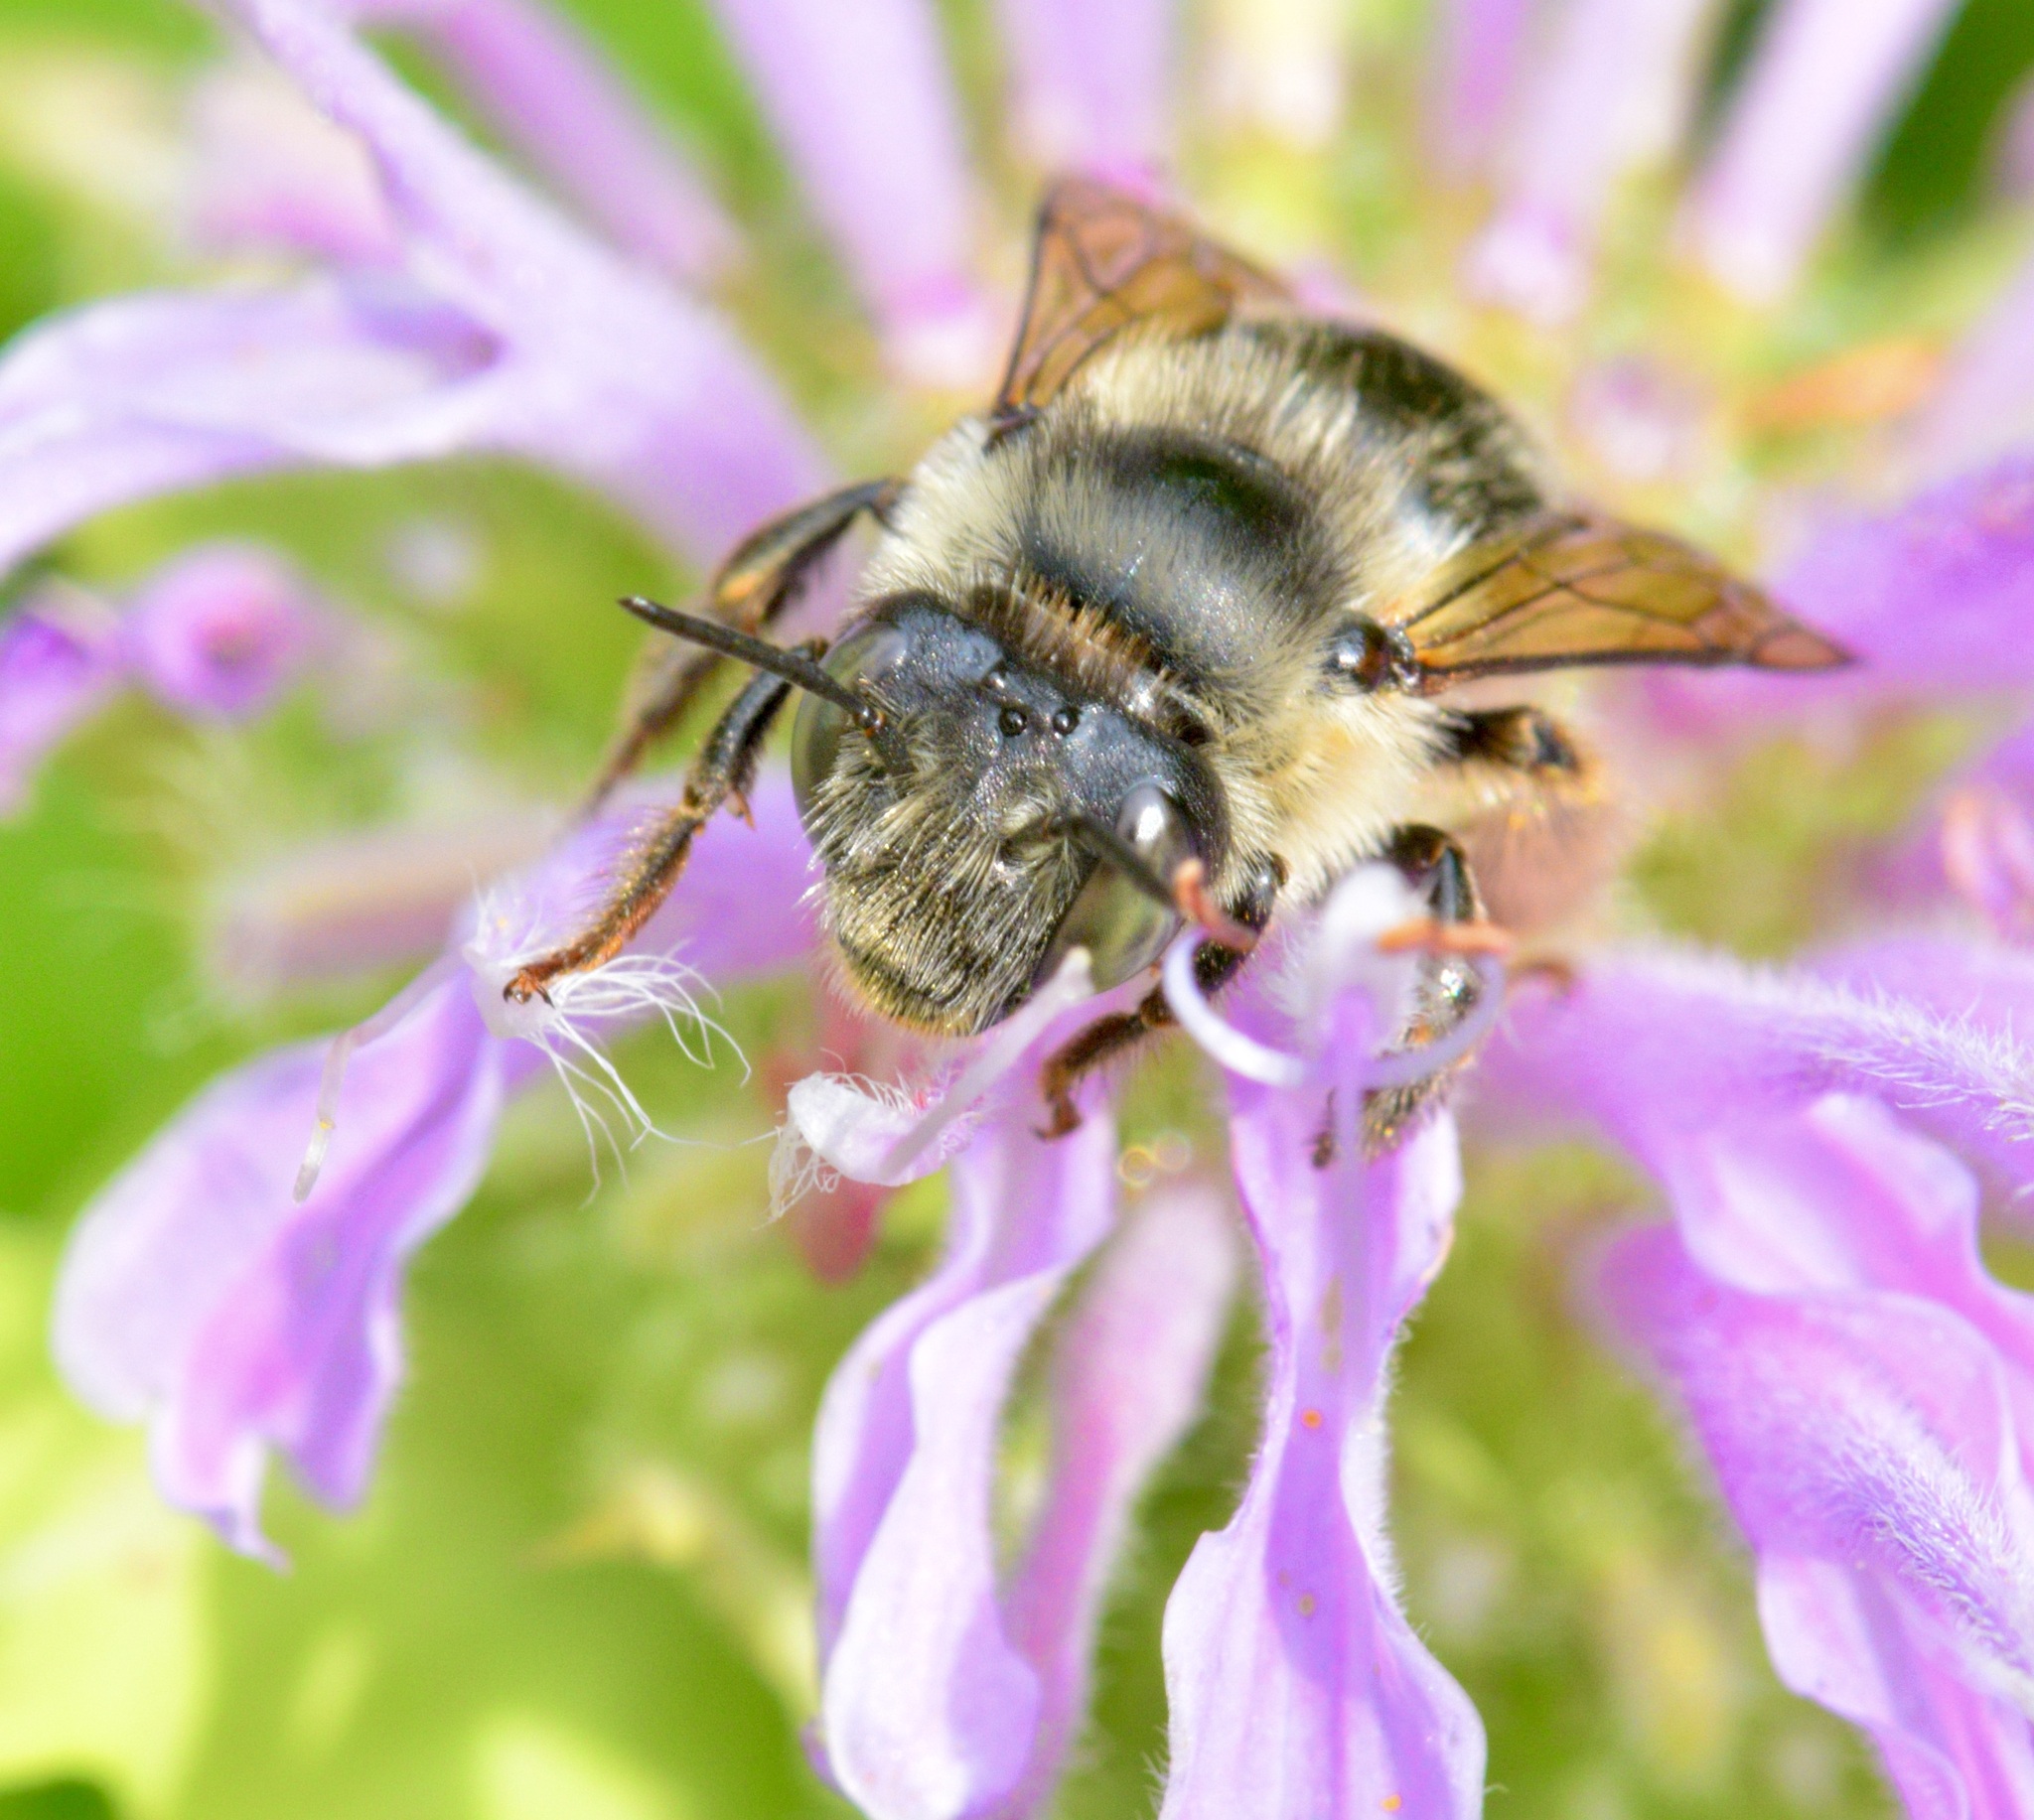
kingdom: Animalia
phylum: Arthropoda
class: Insecta
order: Hymenoptera
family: Apidae
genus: Anthophora
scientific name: Anthophora terminalis
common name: Orange-tipped wood-digger bee
